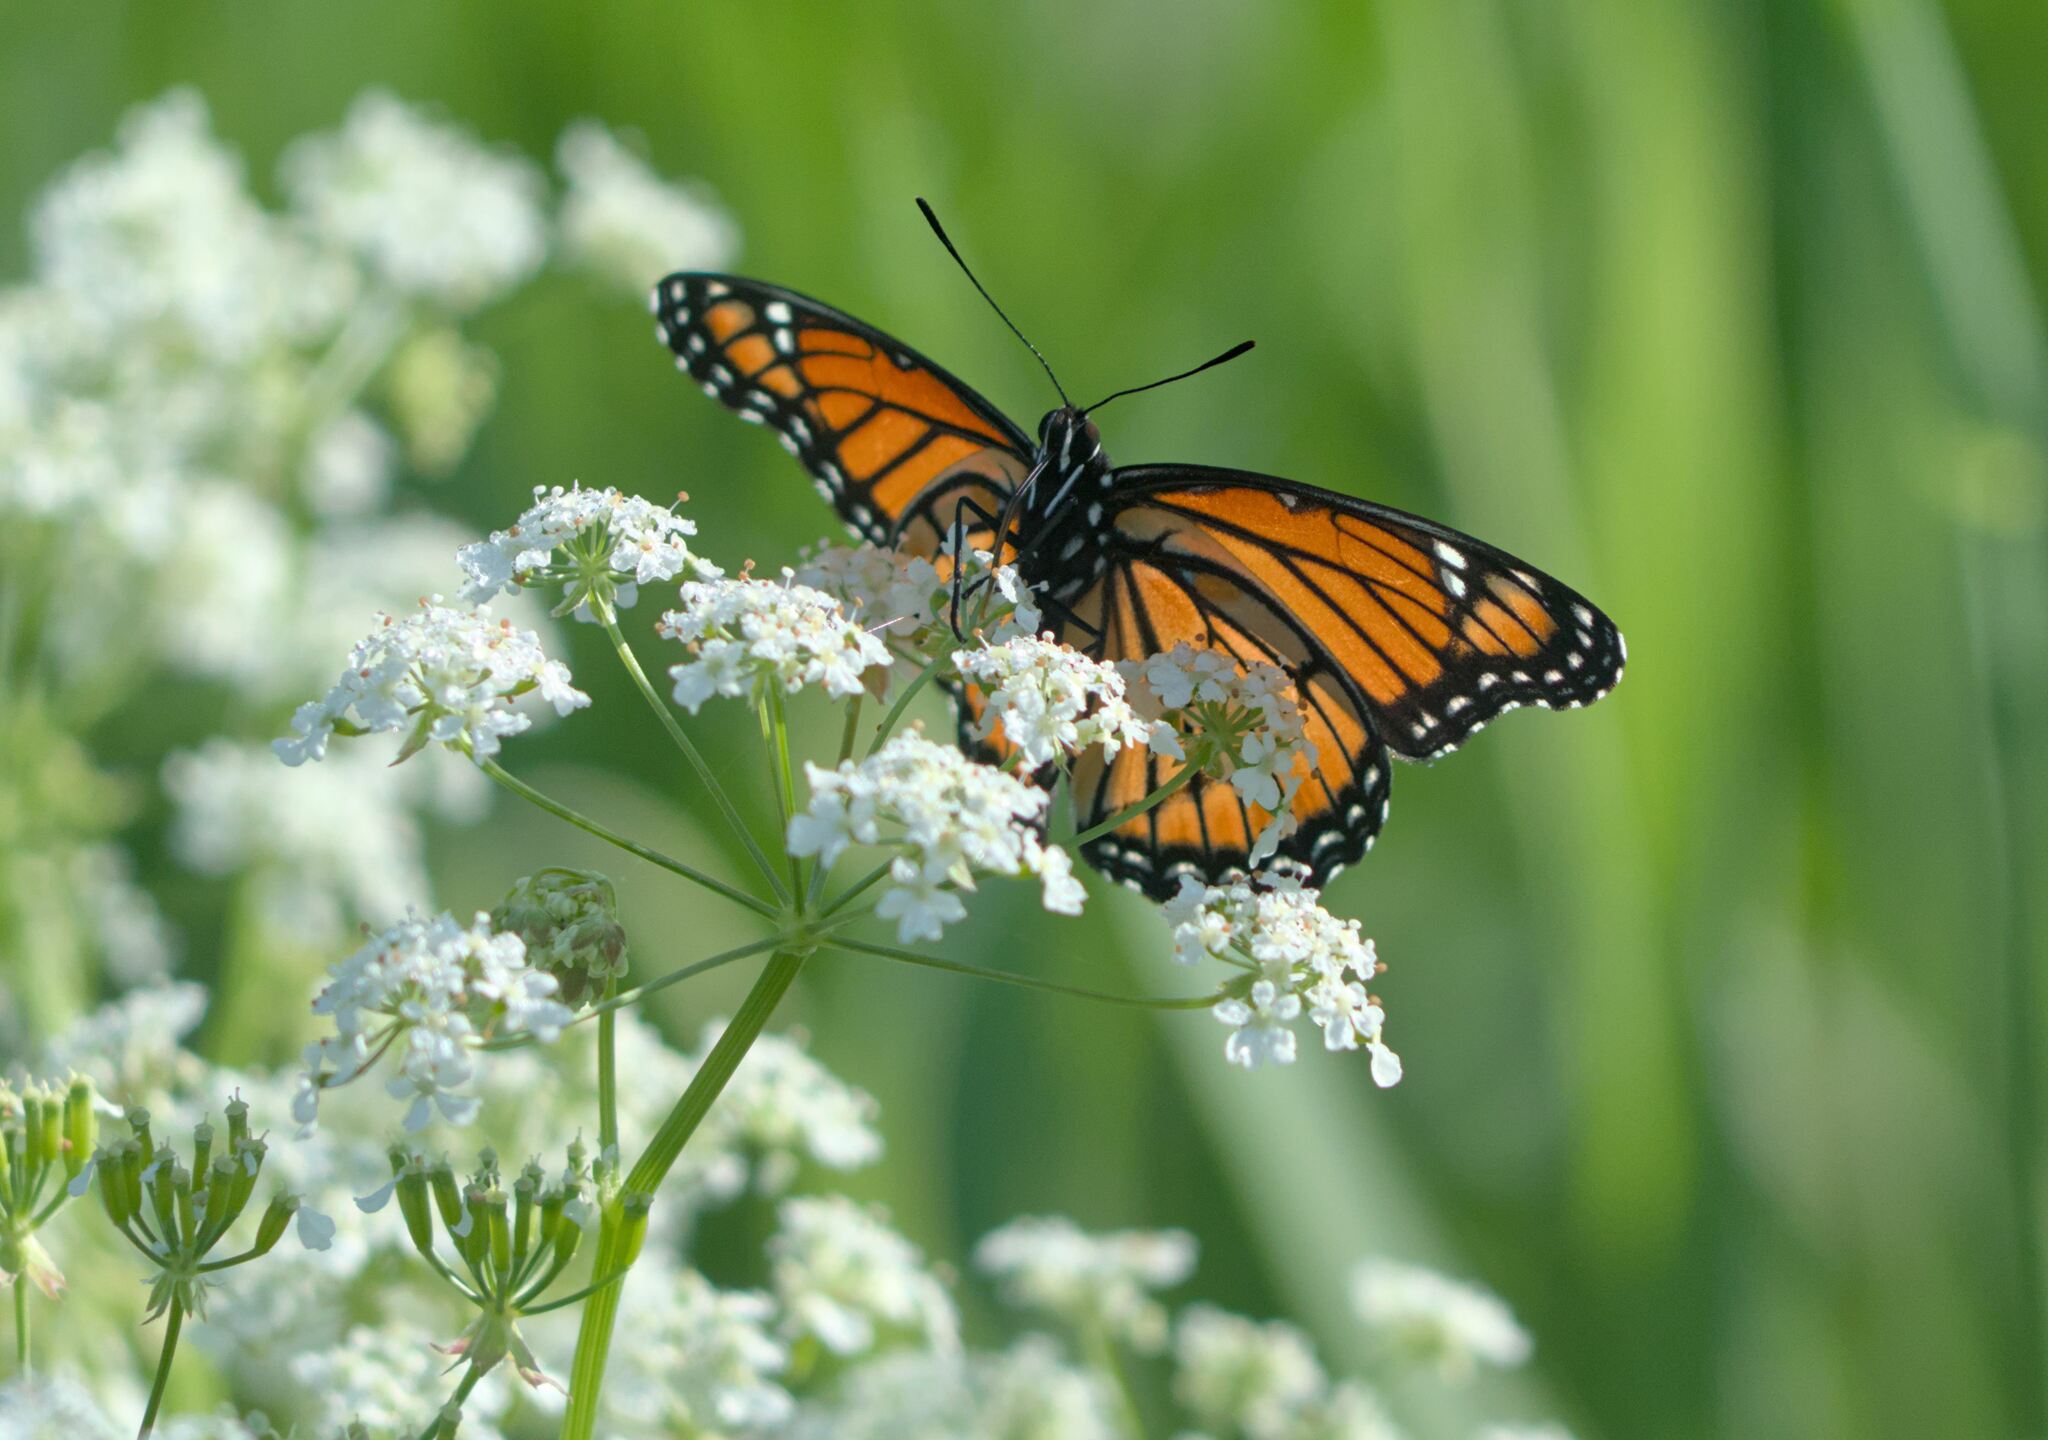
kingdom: Animalia
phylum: Arthropoda
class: Insecta
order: Lepidoptera
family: Nymphalidae
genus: Limenitis
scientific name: Limenitis archippus
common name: Viceroy
